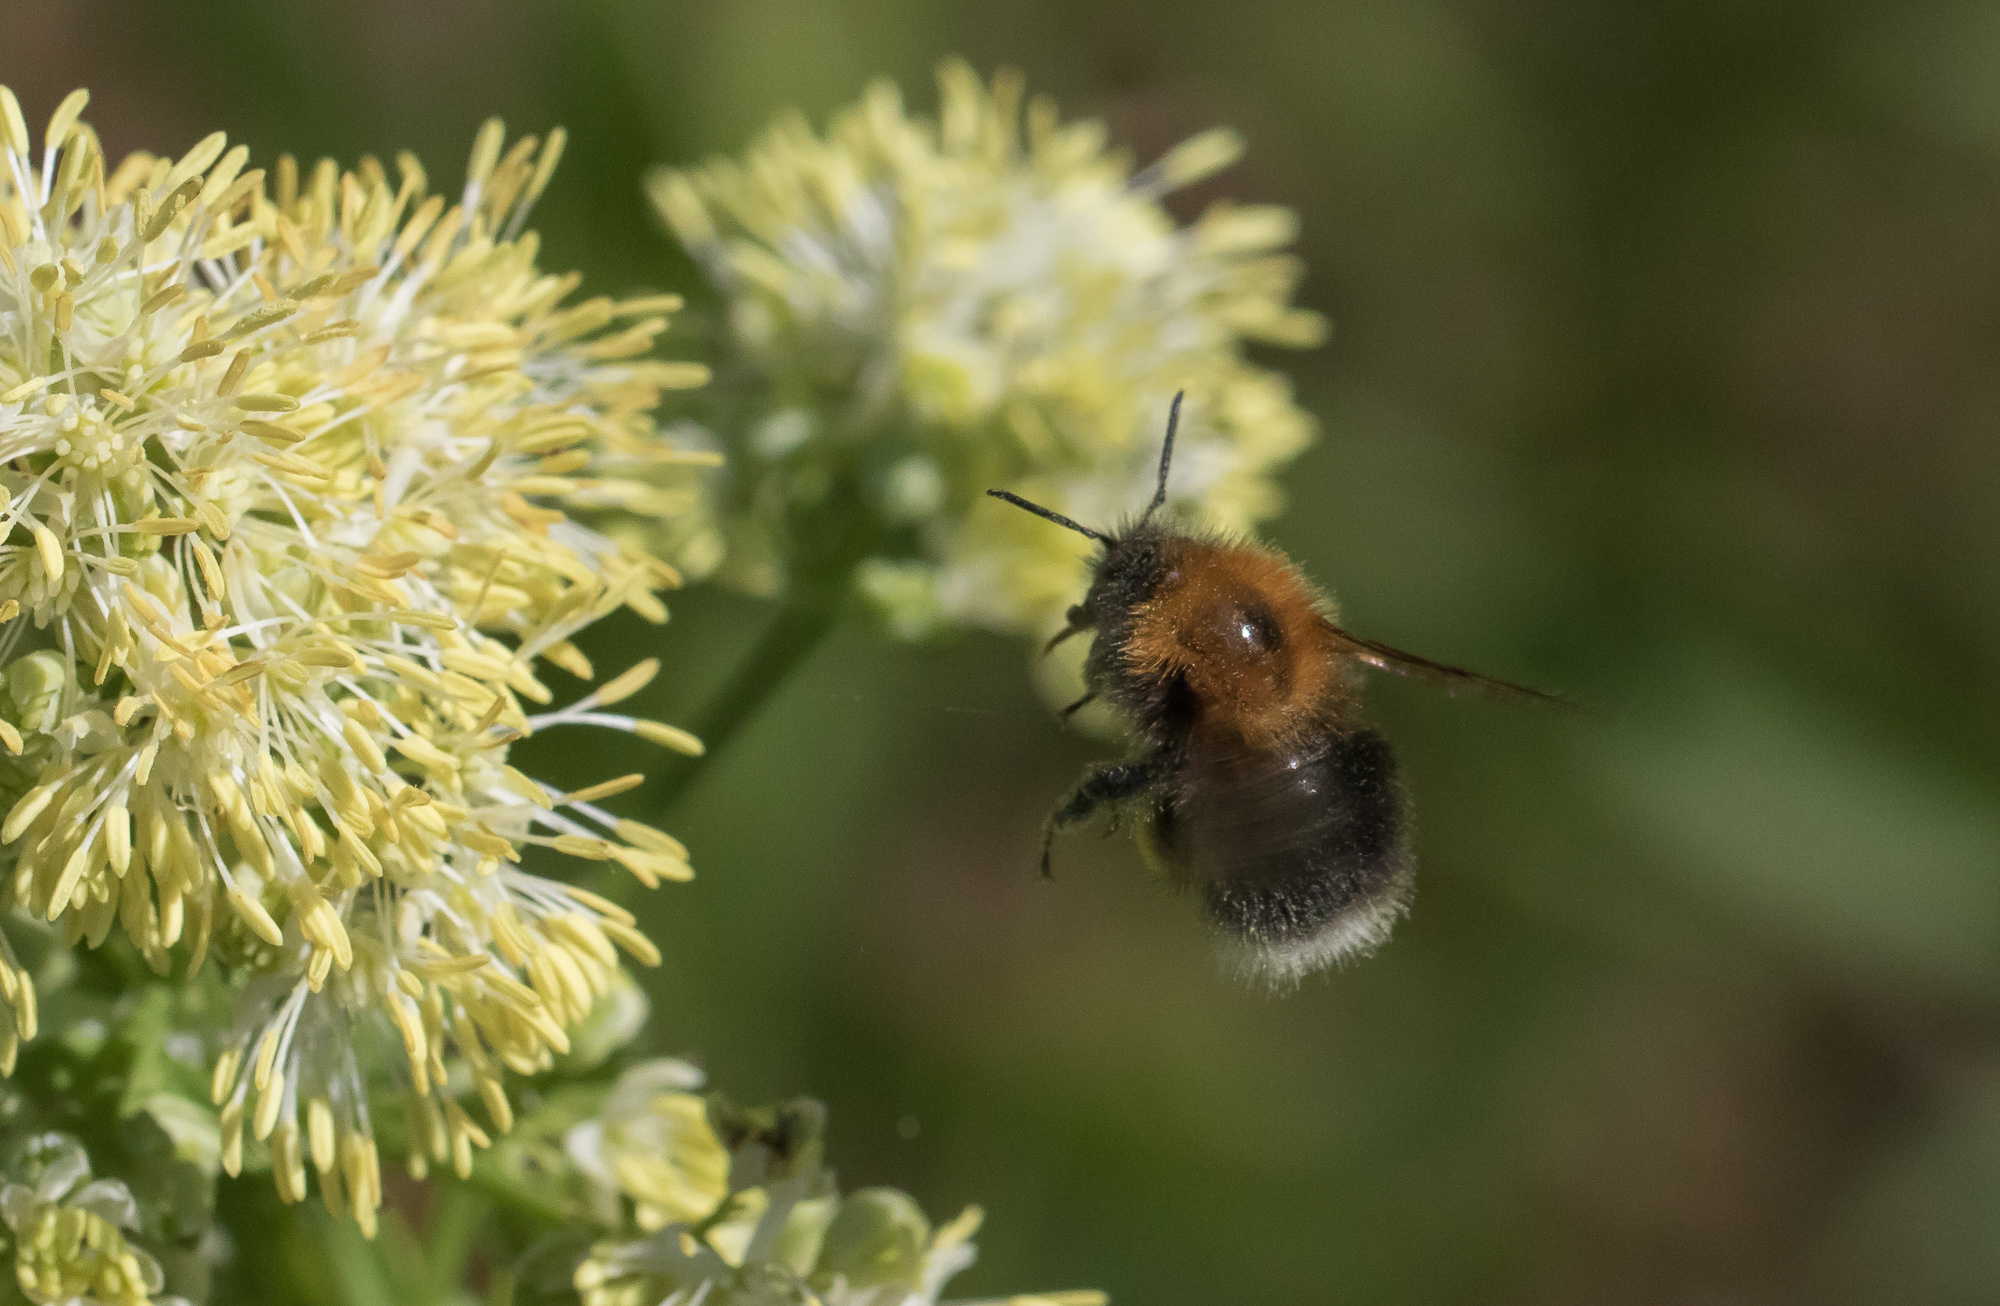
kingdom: Animalia
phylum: Arthropoda
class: Insecta
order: Hymenoptera
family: Apidae
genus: Bombus
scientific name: Bombus hypnorum
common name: New garden bumblebee
